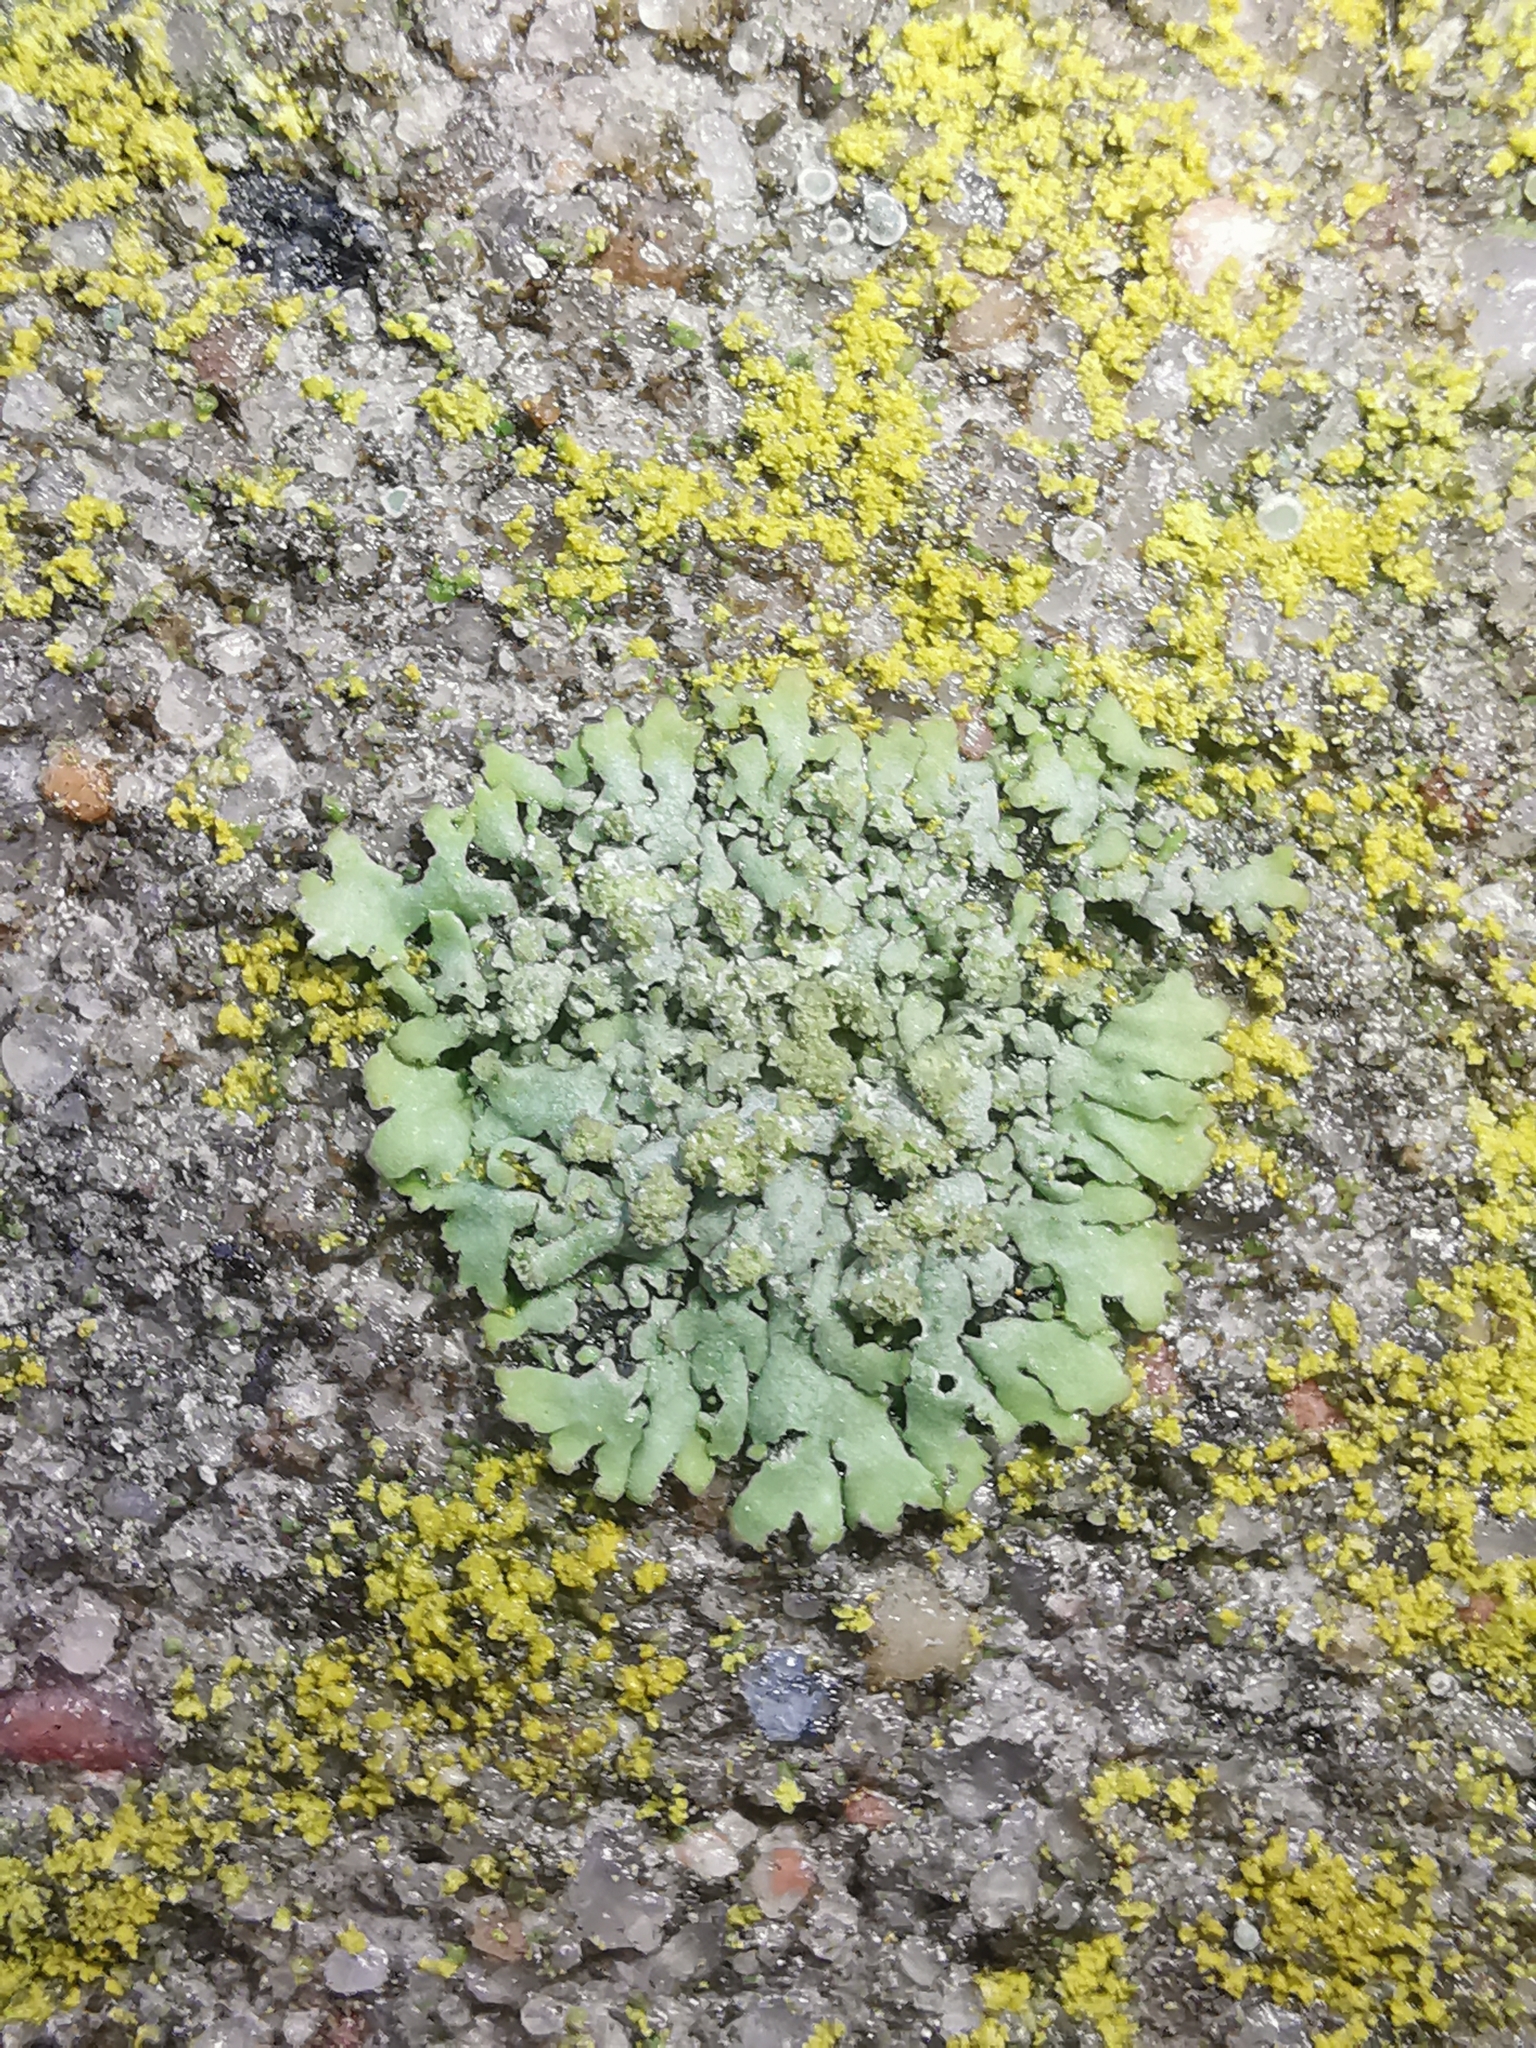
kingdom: Fungi
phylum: Ascomycota
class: Lecanoromycetes
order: Caliciales
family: Physciaceae
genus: Phaeophyscia
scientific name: Phaeophyscia orbicularis
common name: Mealy shadow lichen
